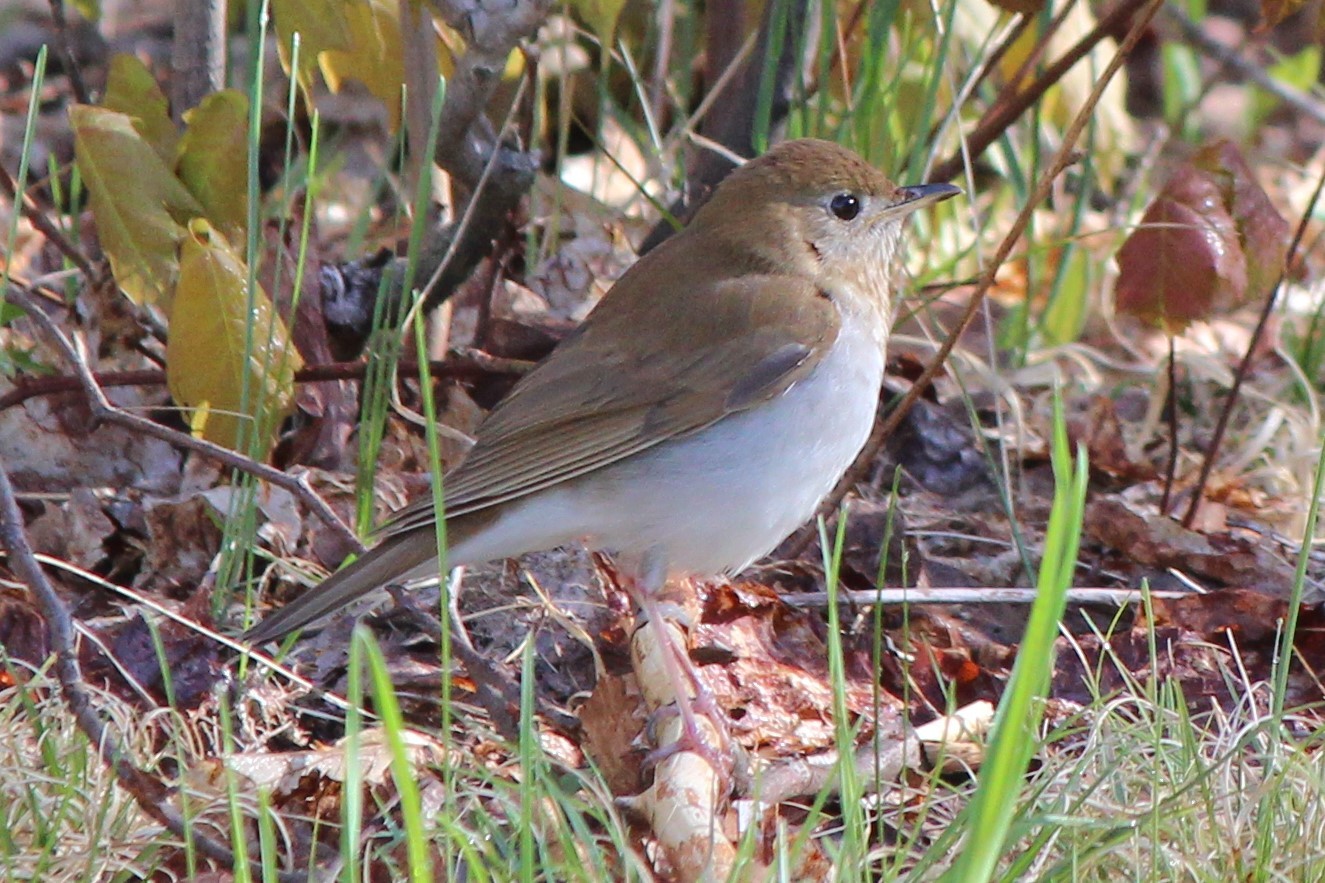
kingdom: Animalia
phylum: Chordata
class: Aves
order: Passeriformes
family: Turdidae
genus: Catharus
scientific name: Catharus fuscescens
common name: Veery
